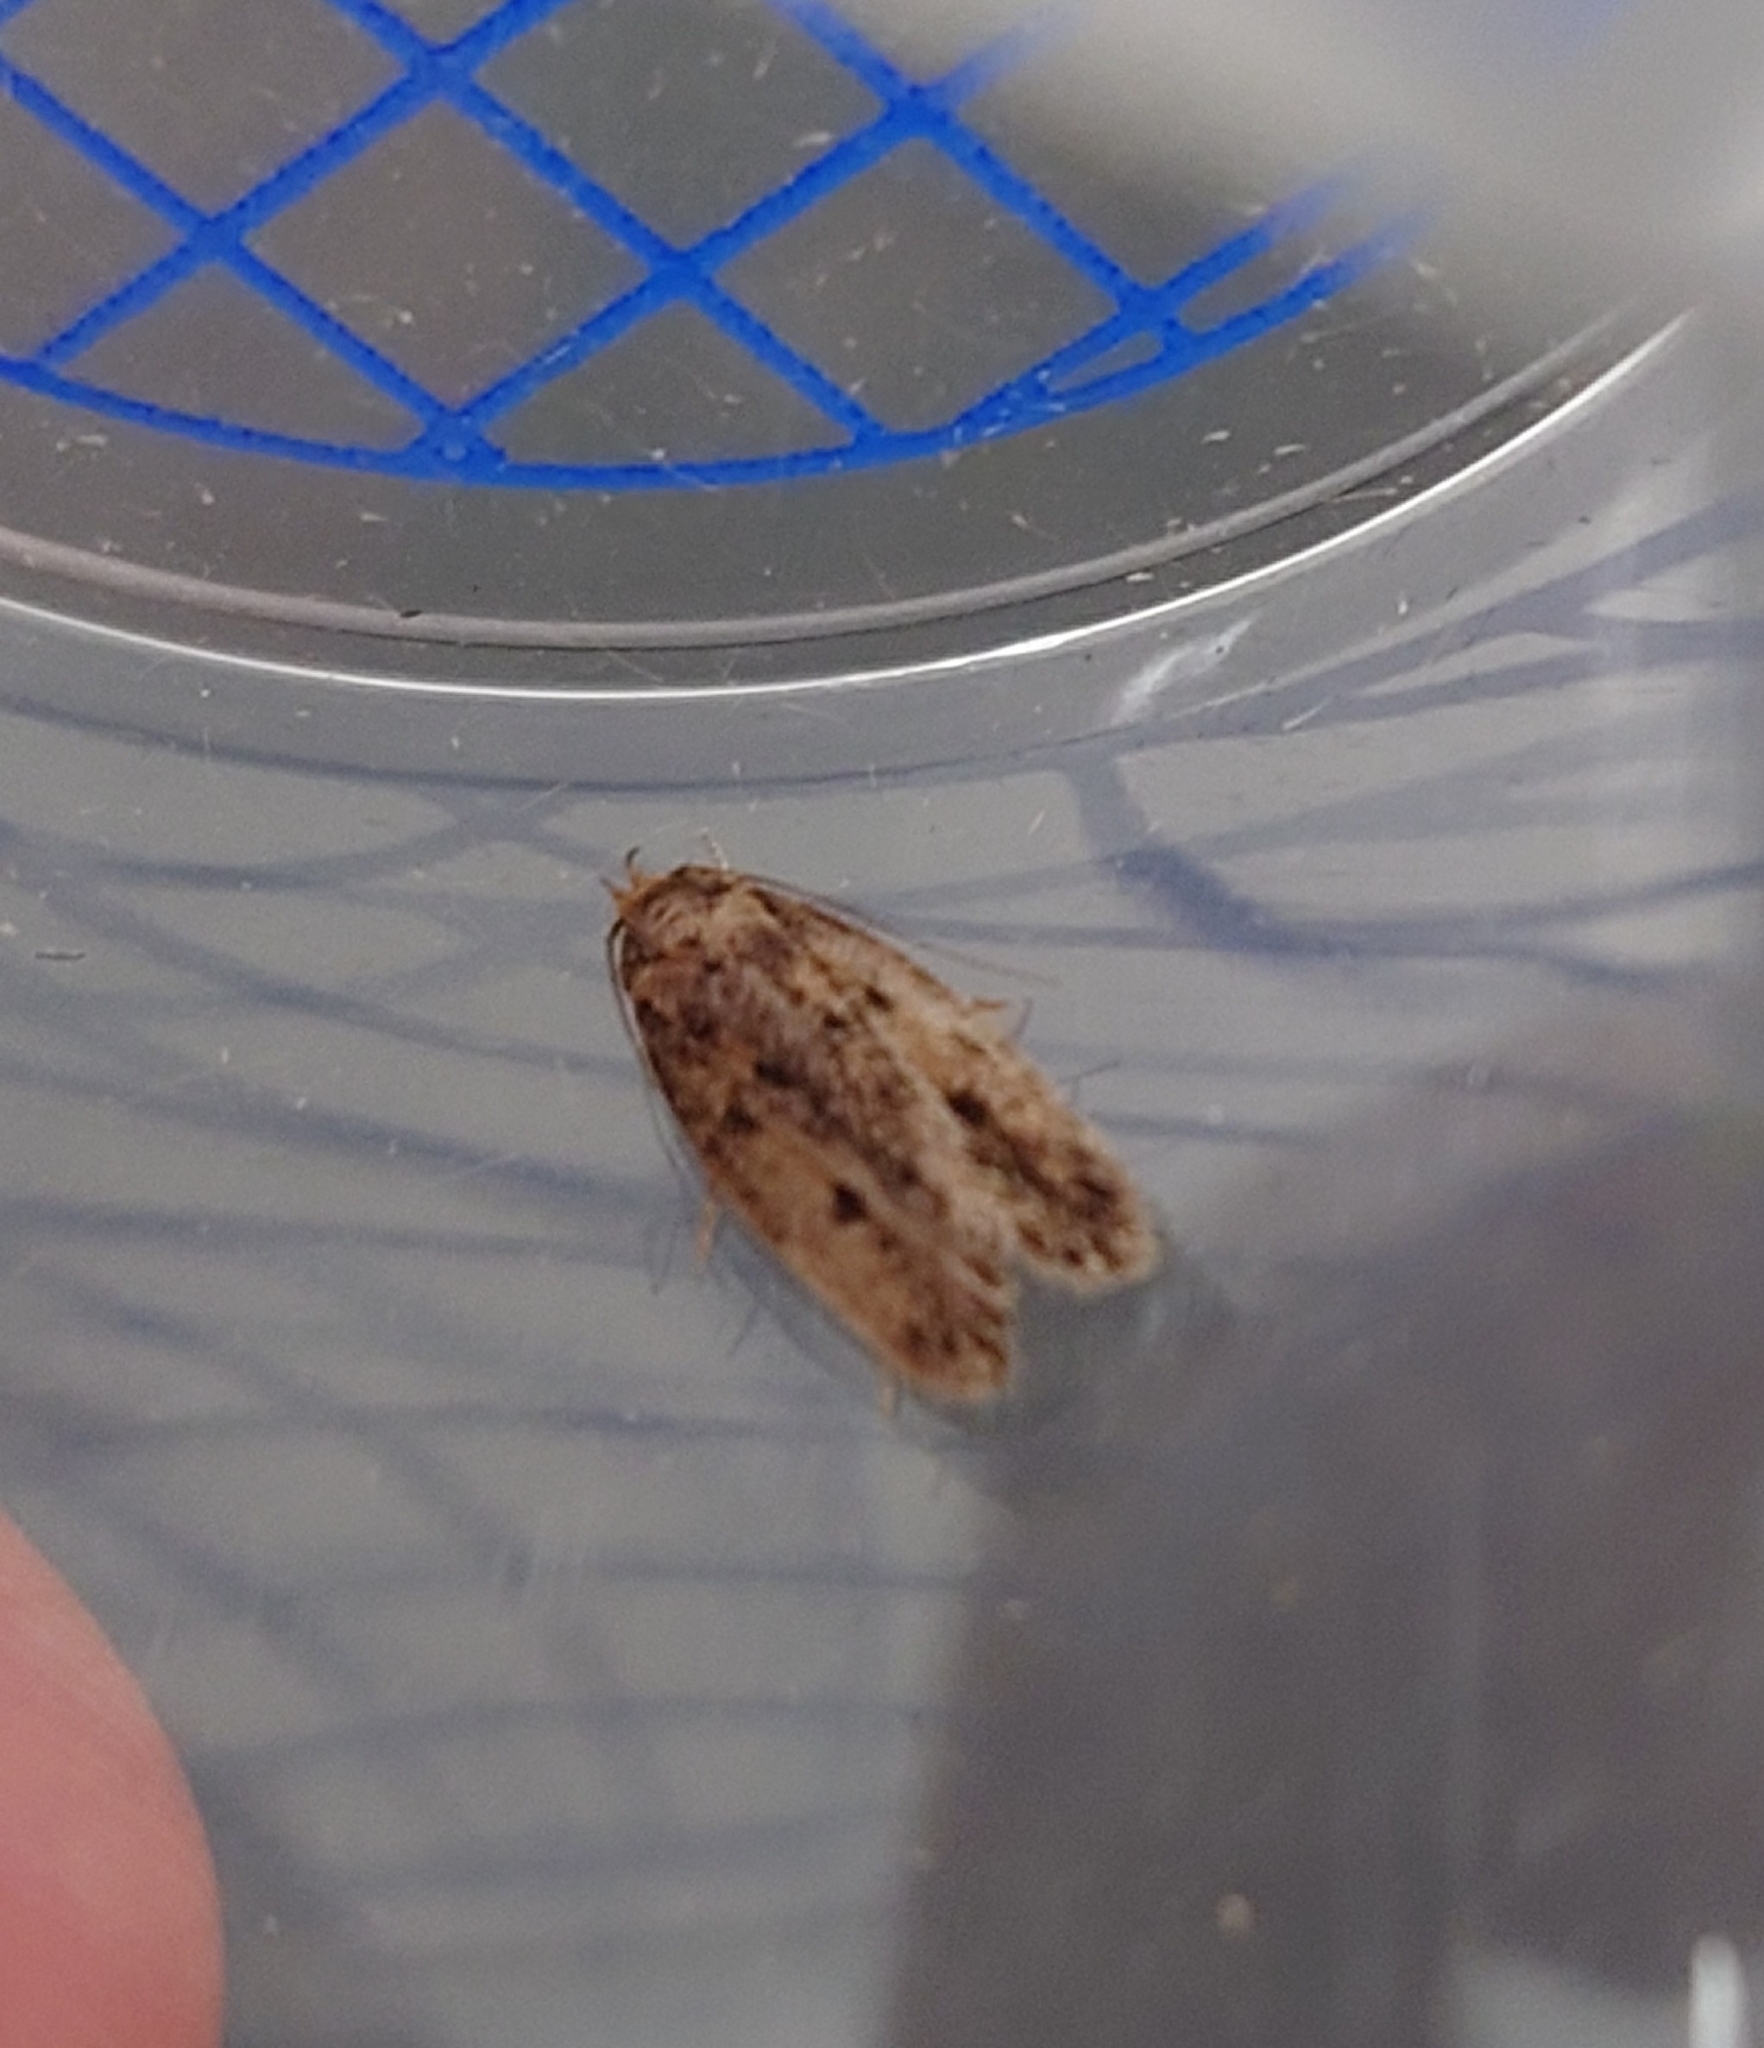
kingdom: Animalia
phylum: Arthropoda
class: Insecta
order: Lepidoptera
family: Oecophoridae
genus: Hofmannophila
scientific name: Hofmannophila pseudospretella
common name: Brown house moth
